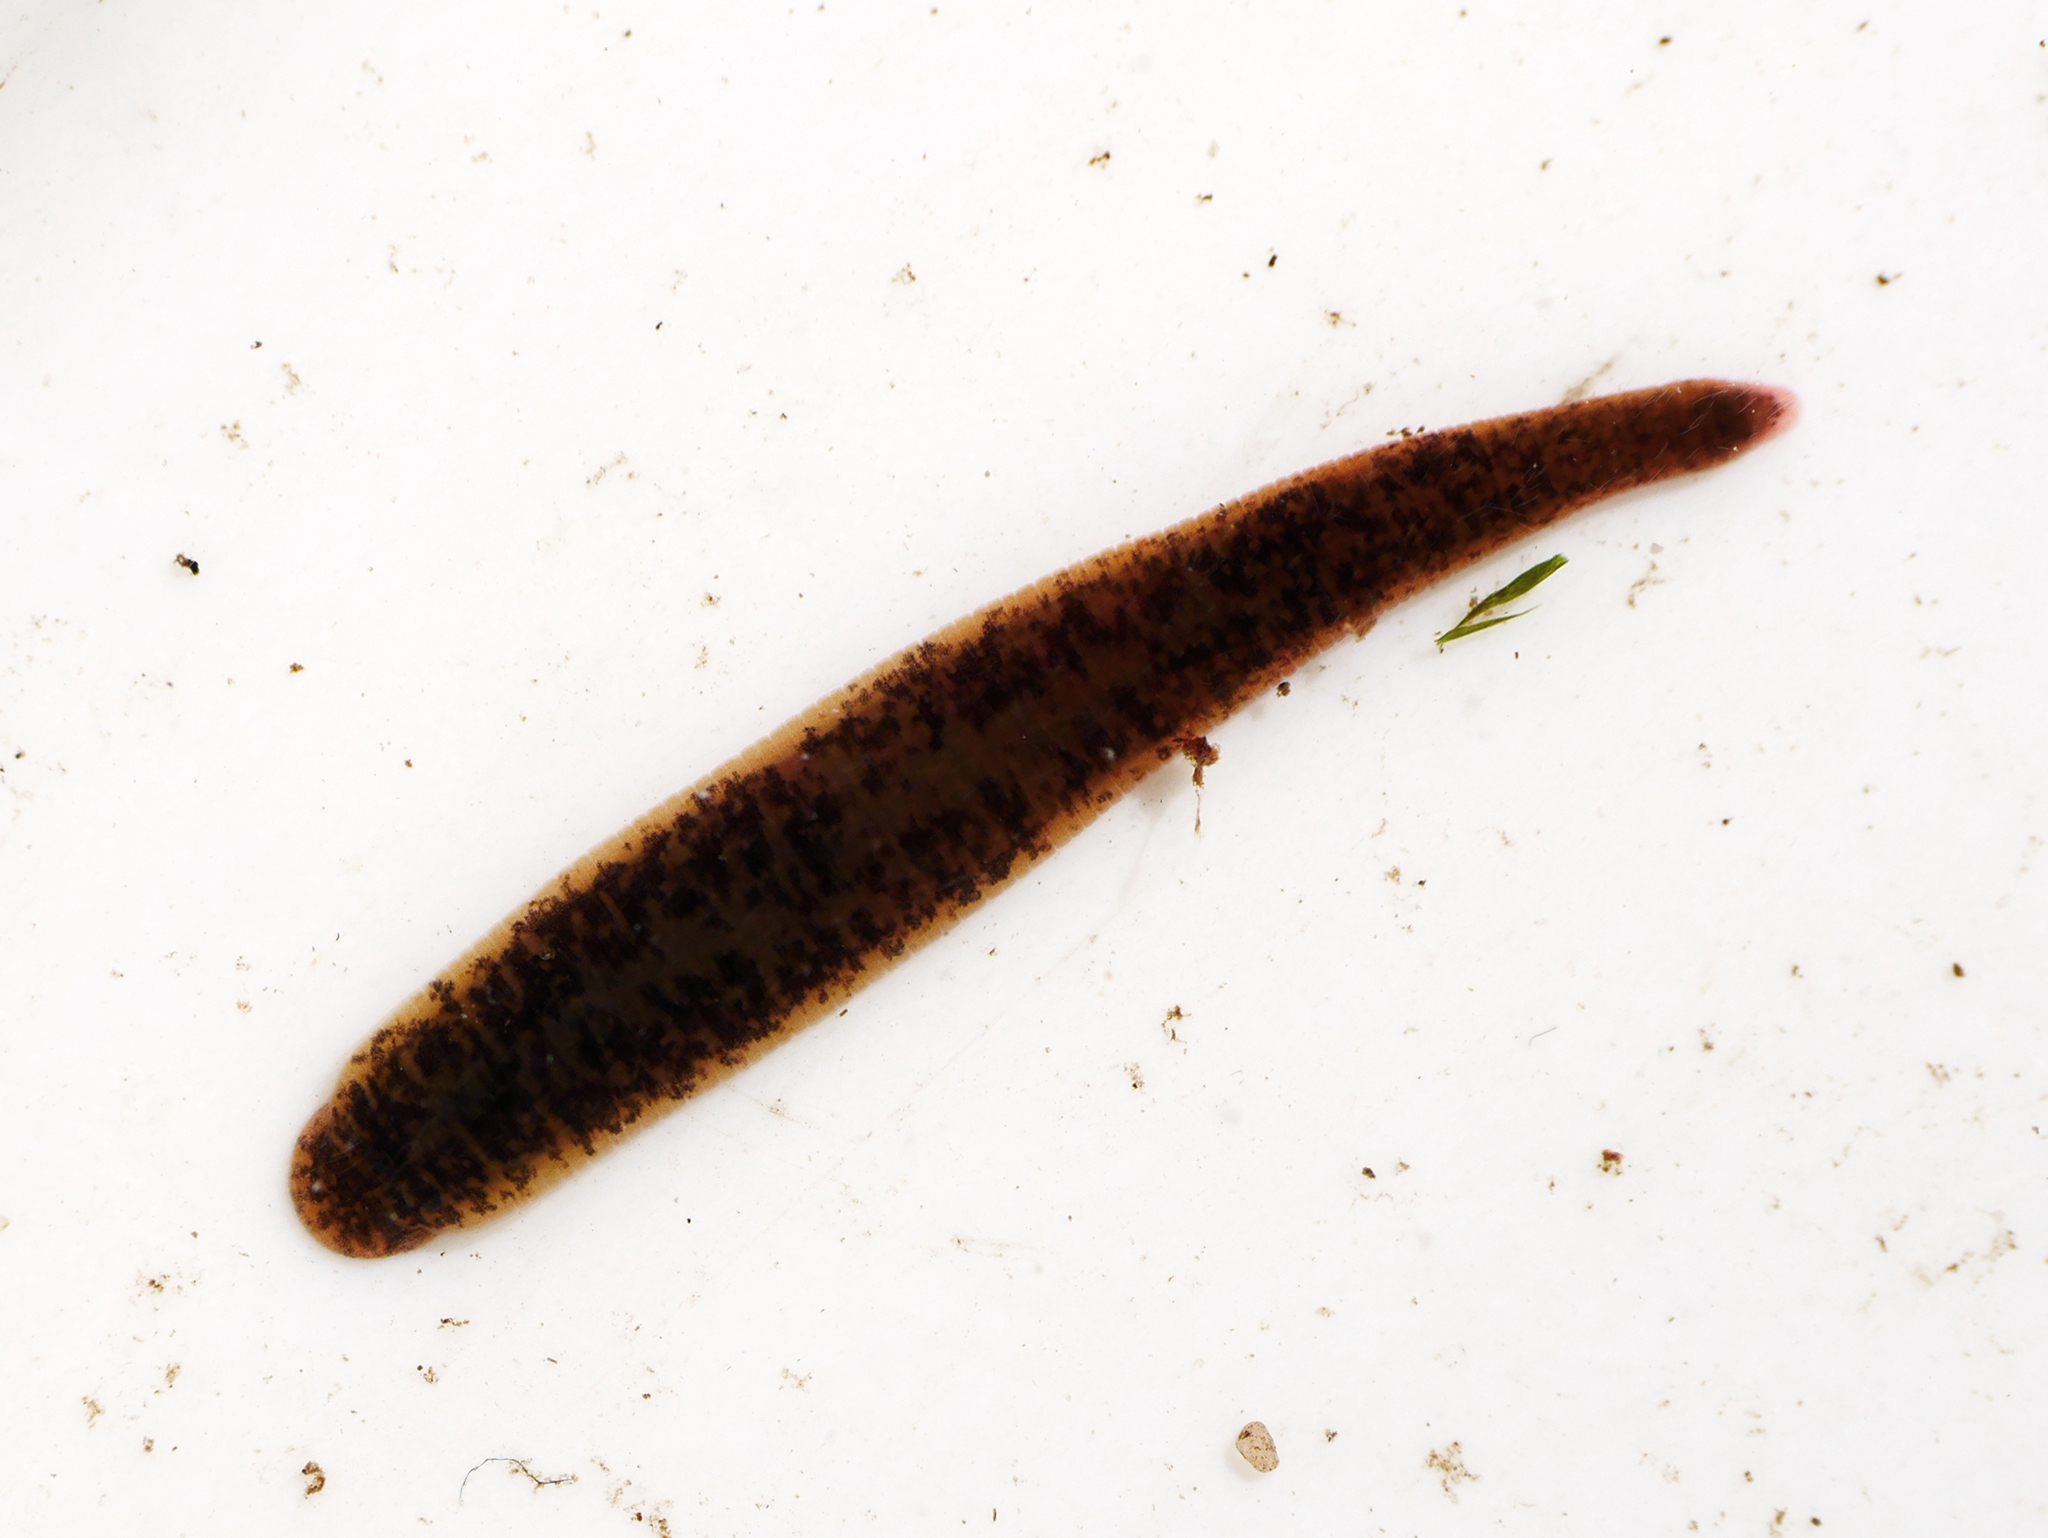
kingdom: Animalia
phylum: Annelida
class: Clitellata
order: Arhynchobdellida
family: Erpobdellidae
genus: Erpobdella
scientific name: Erpobdella octoculata
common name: Leeches
